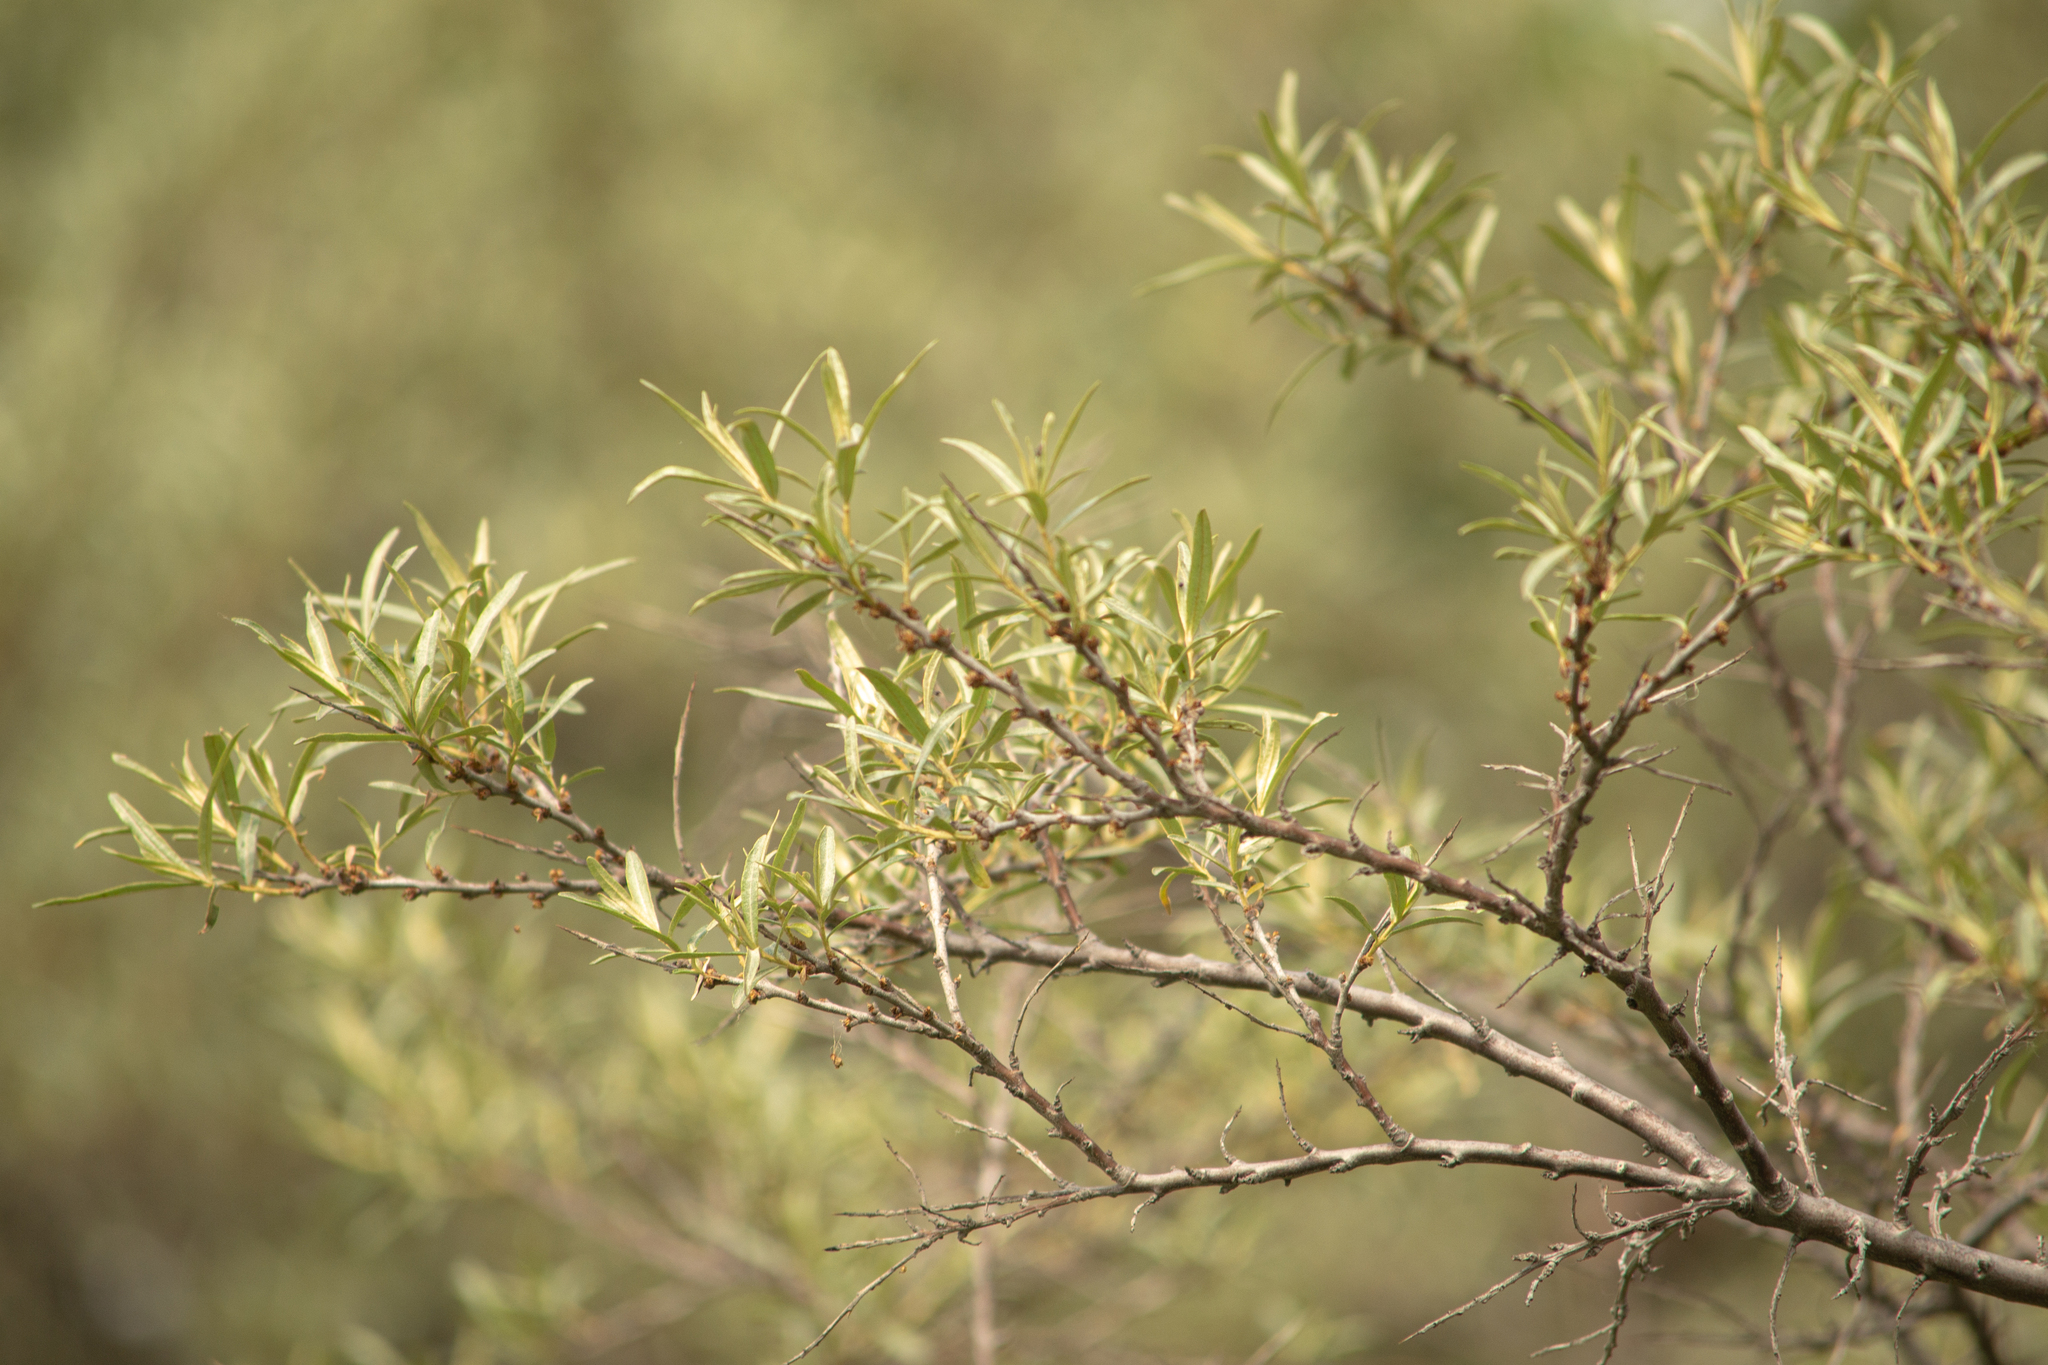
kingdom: Plantae
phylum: Tracheophyta
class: Magnoliopsida
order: Rosales
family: Elaeagnaceae
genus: Hippophae
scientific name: Hippophae rhamnoides
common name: Sea-buckthorn
